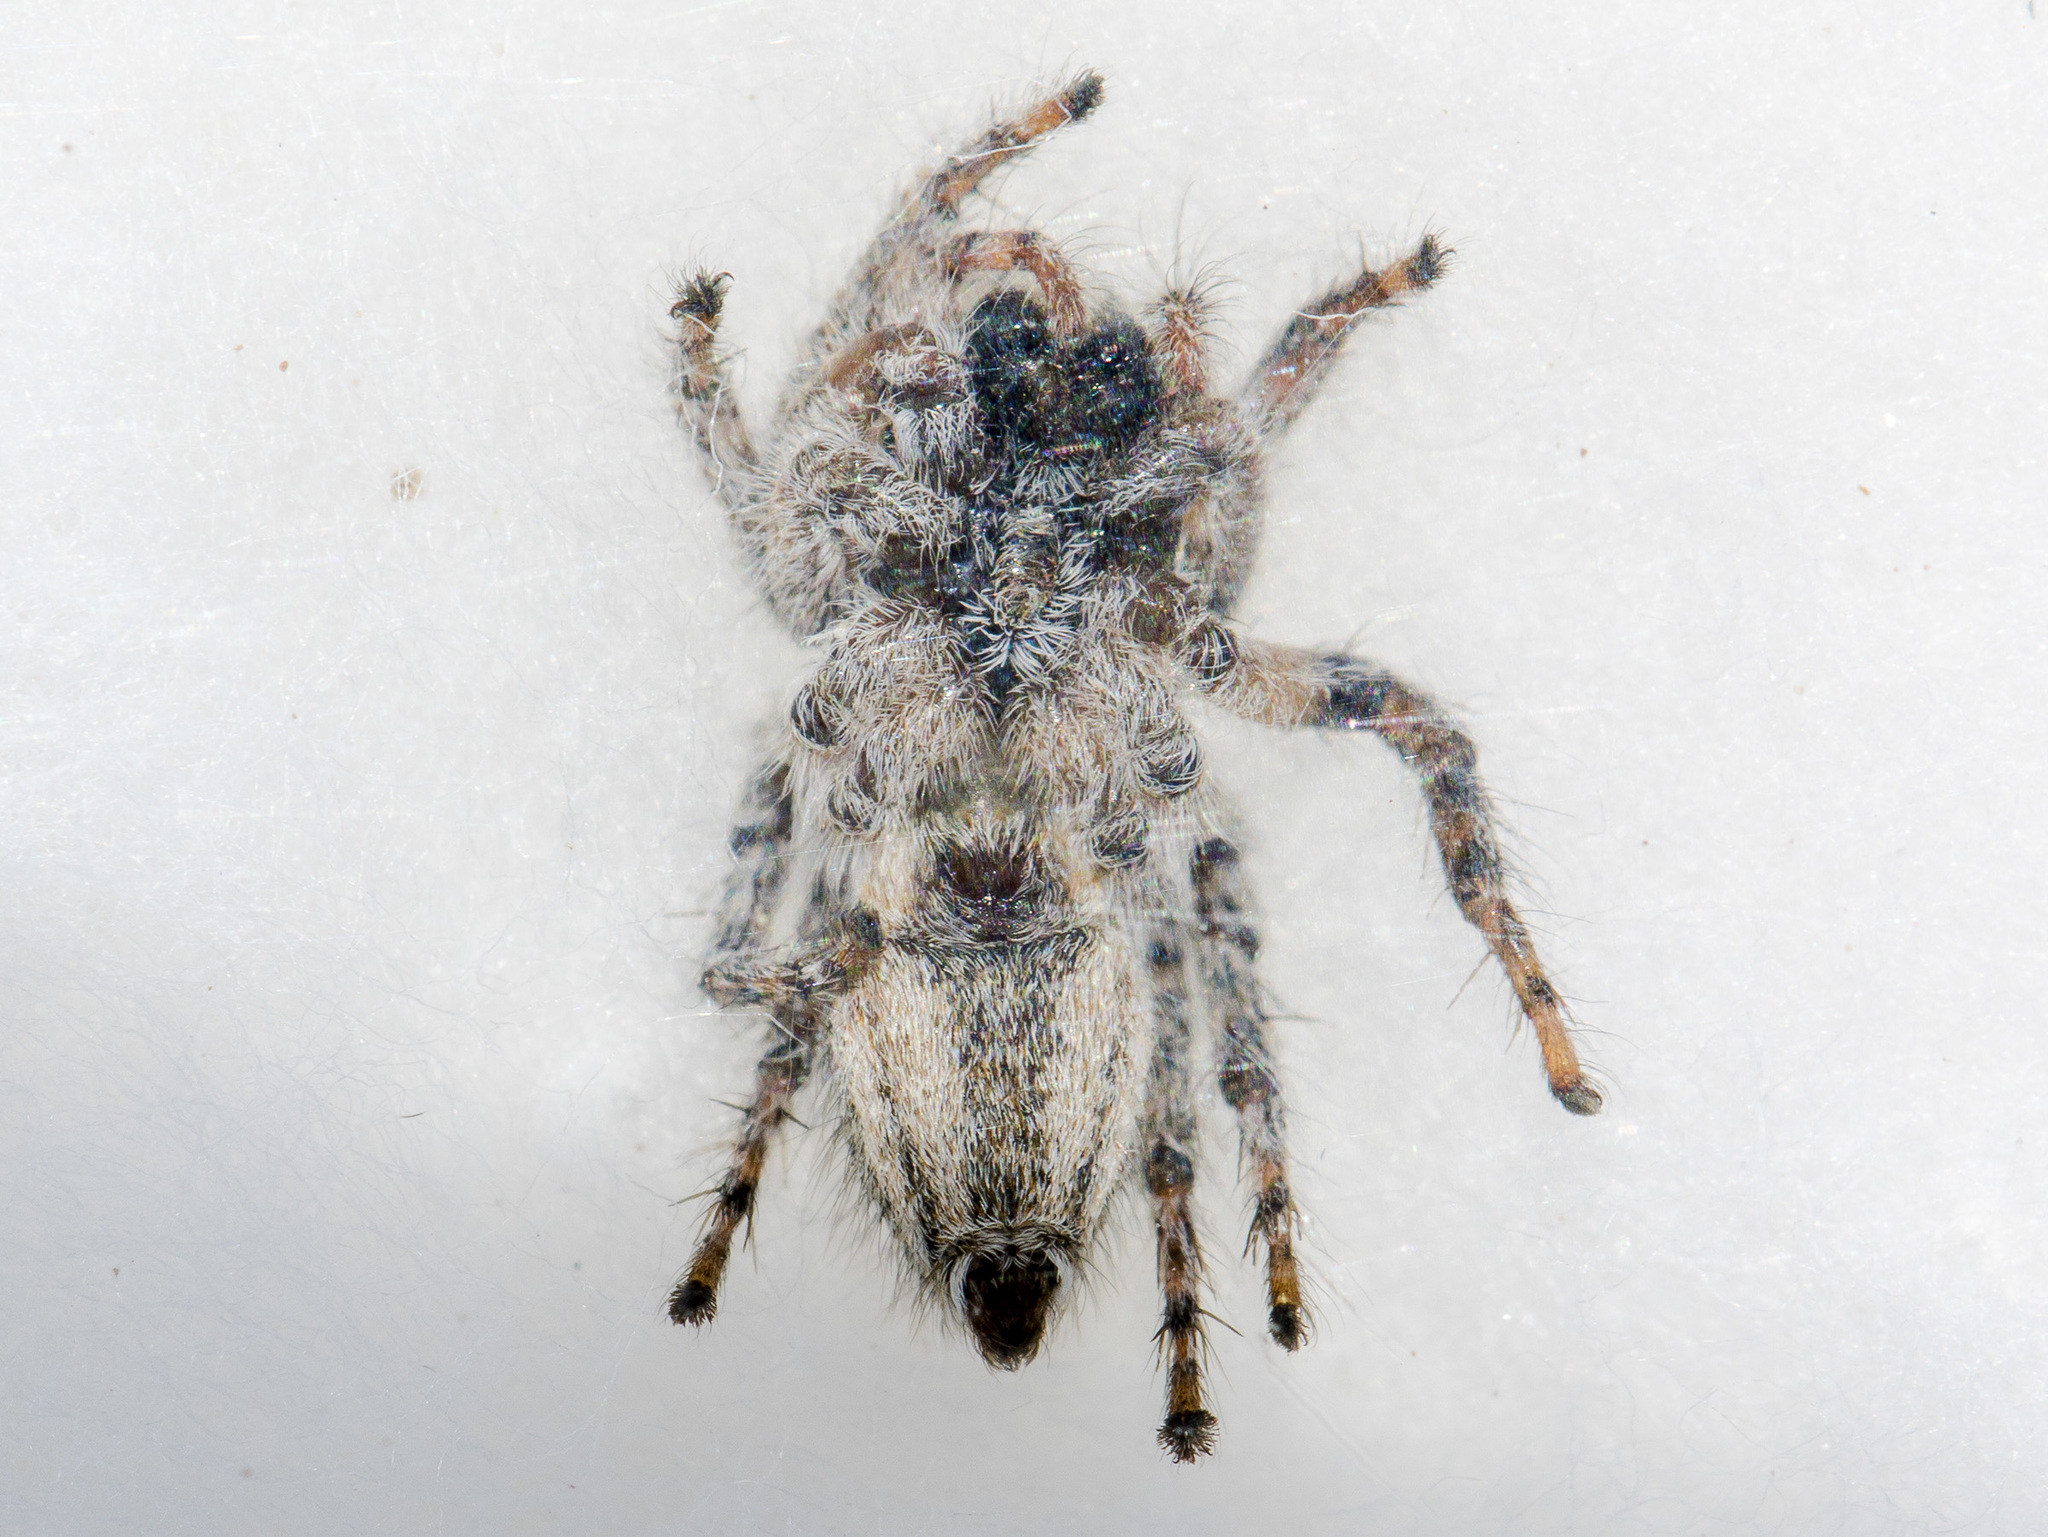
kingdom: Animalia
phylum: Arthropoda
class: Arachnida
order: Araneae
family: Salticidae
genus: Mogrus
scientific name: Mogrus larisae
